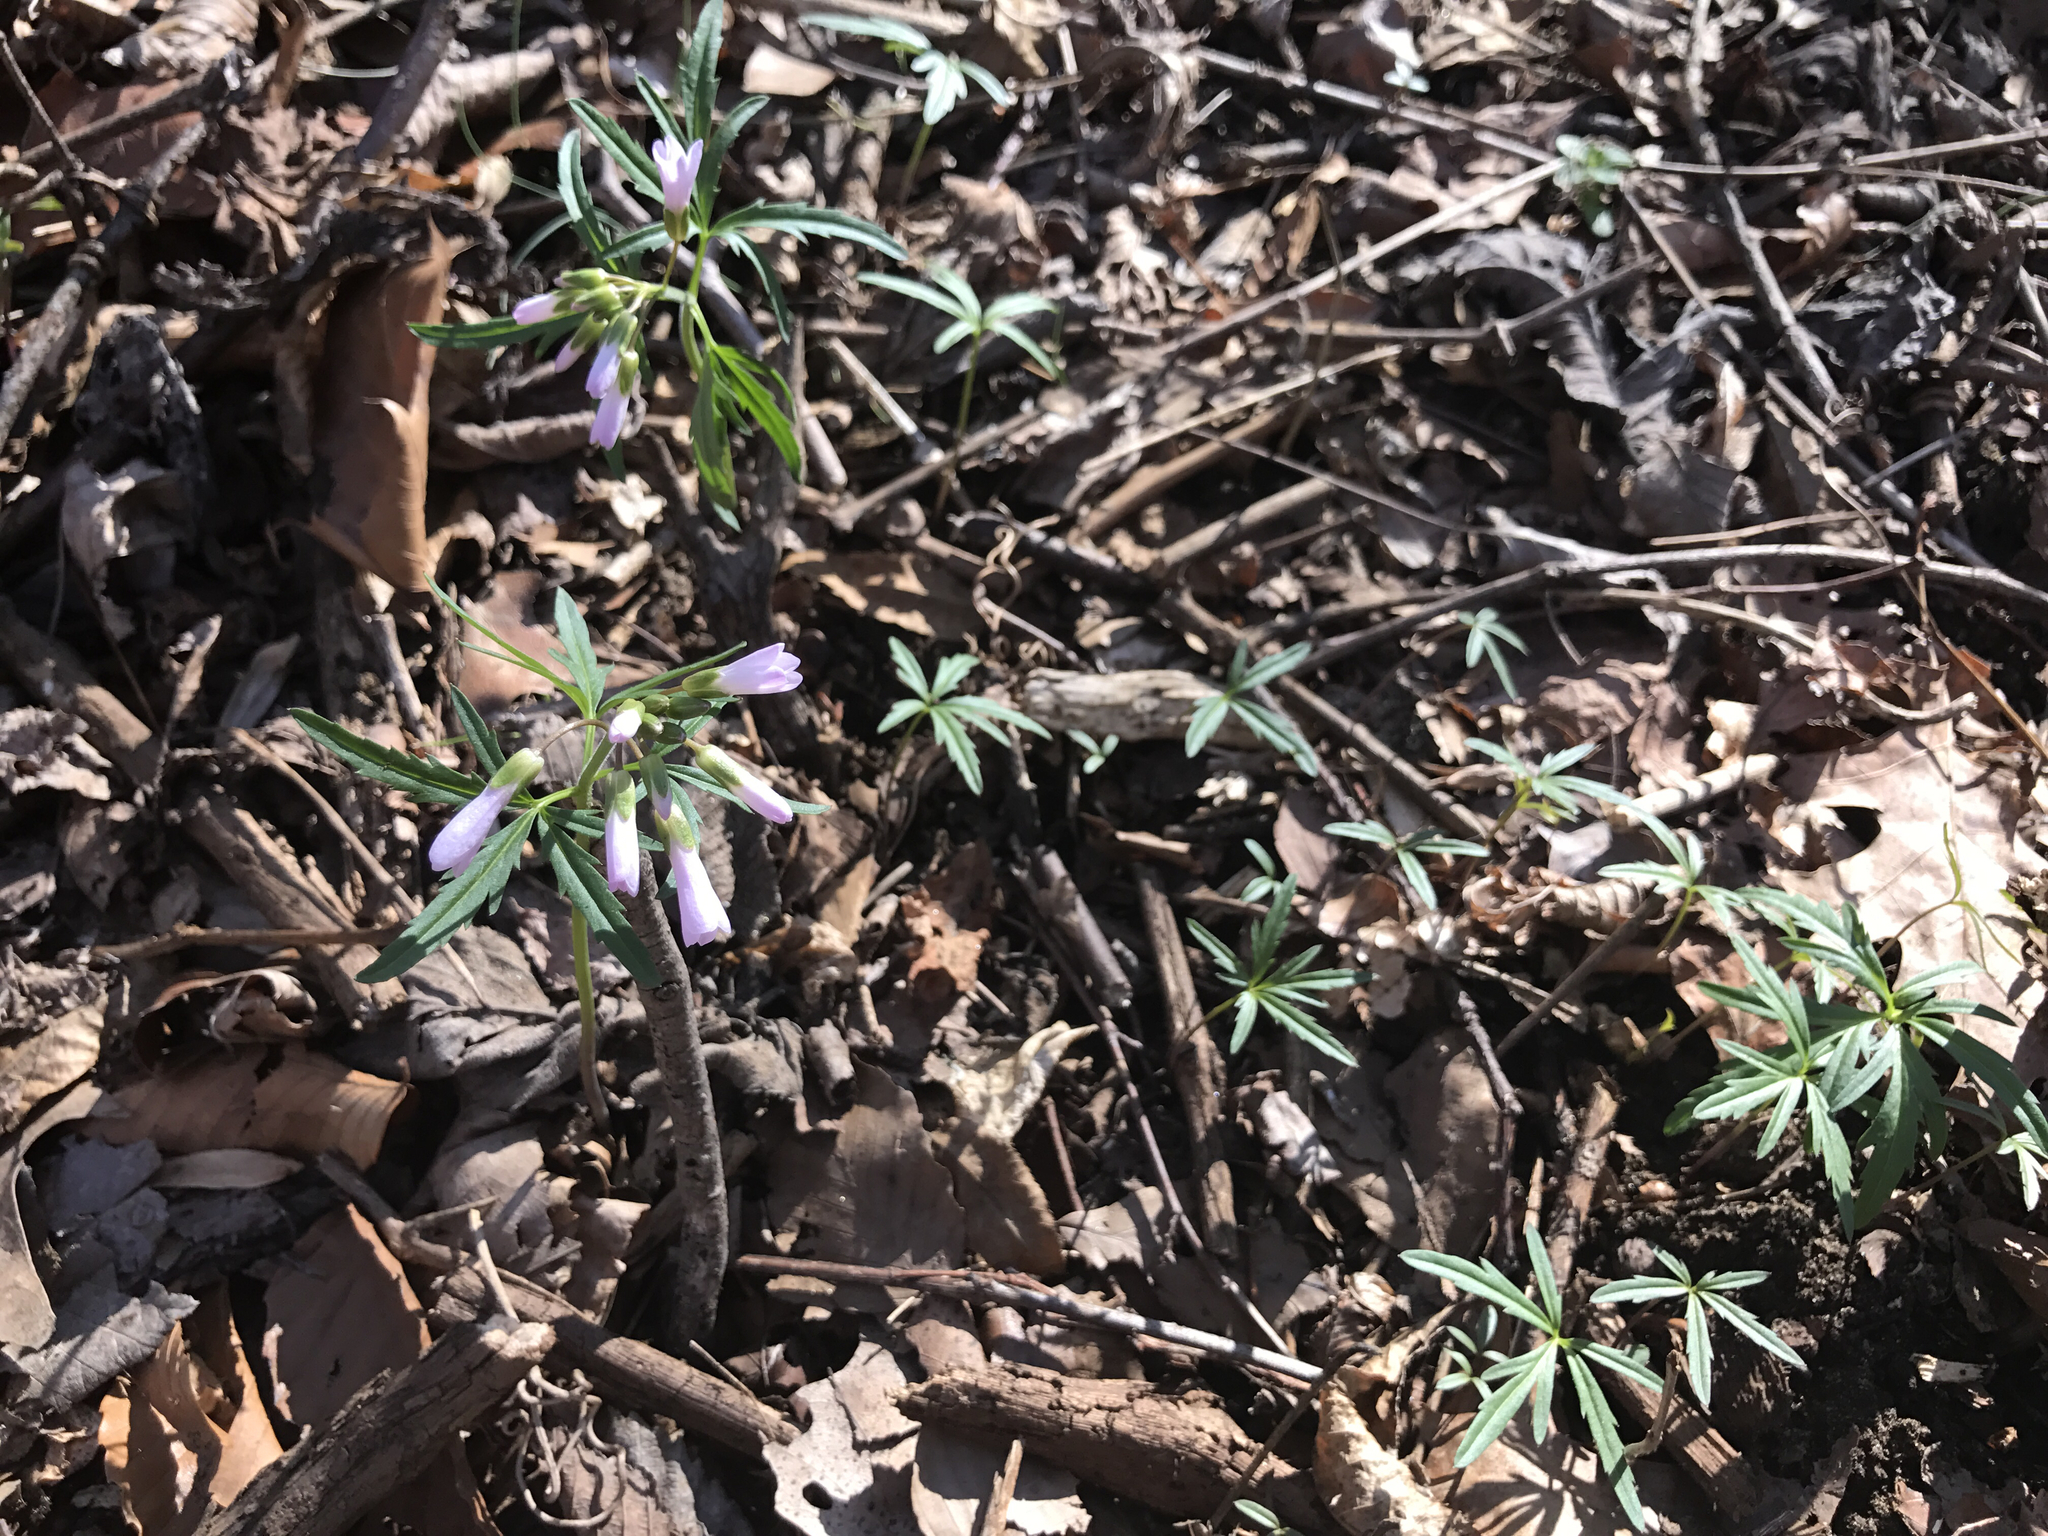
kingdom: Plantae
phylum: Tracheophyta
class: Magnoliopsida
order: Brassicales
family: Brassicaceae
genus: Cardamine
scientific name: Cardamine concatenata
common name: Cut-leaf toothcup
